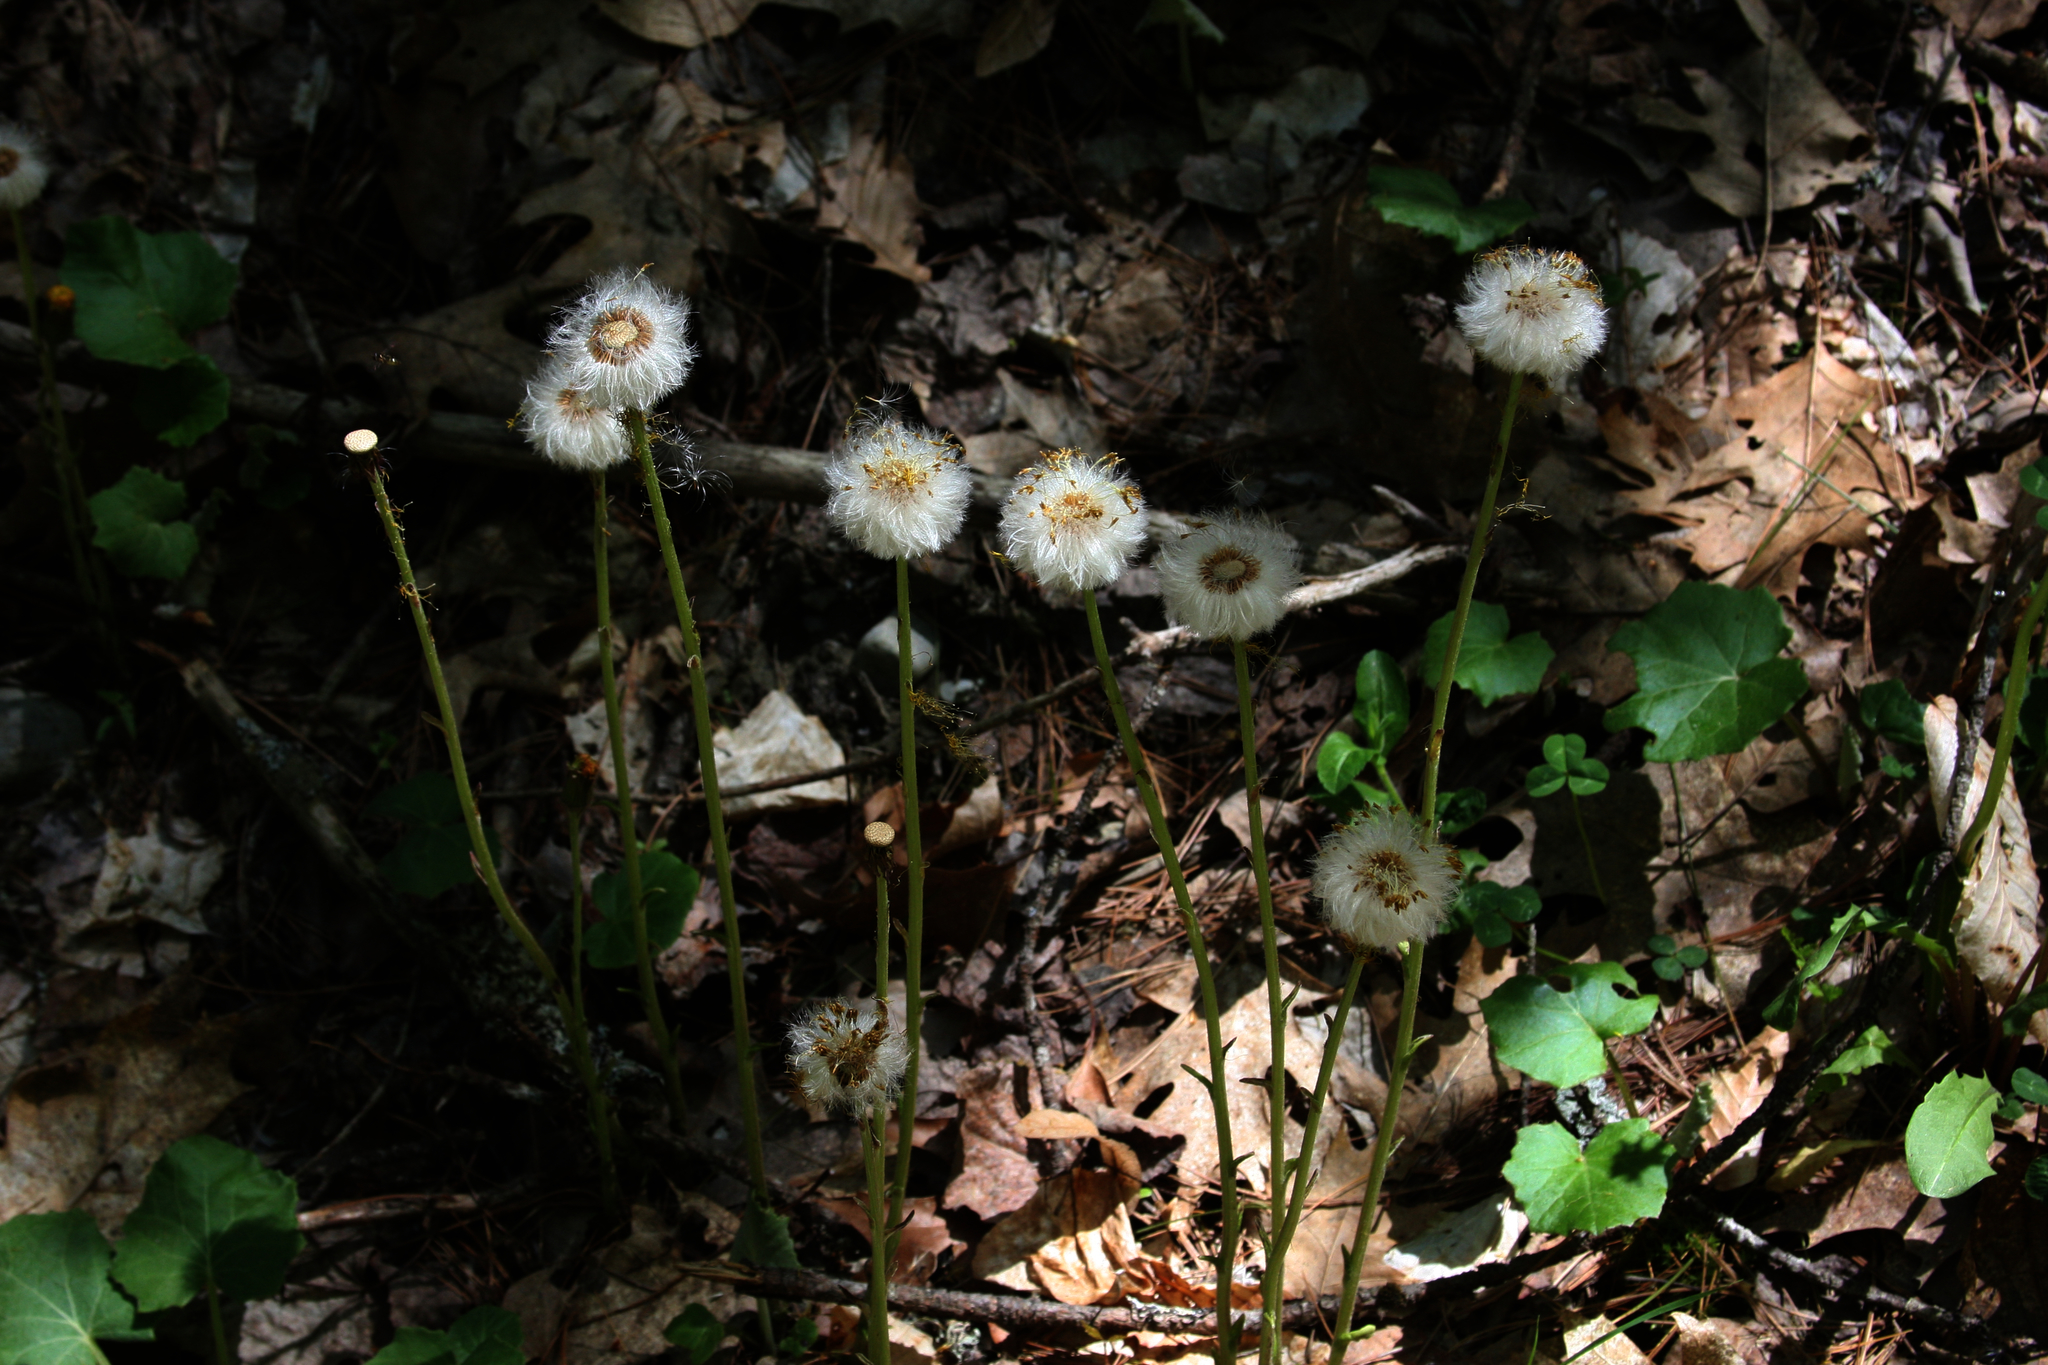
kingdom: Plantae
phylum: Tracheophyta
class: Magnoliopsida
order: Asterales
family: Asteraceae
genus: Tussilago
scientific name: Tussilago farfara
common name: Coltsfoot
